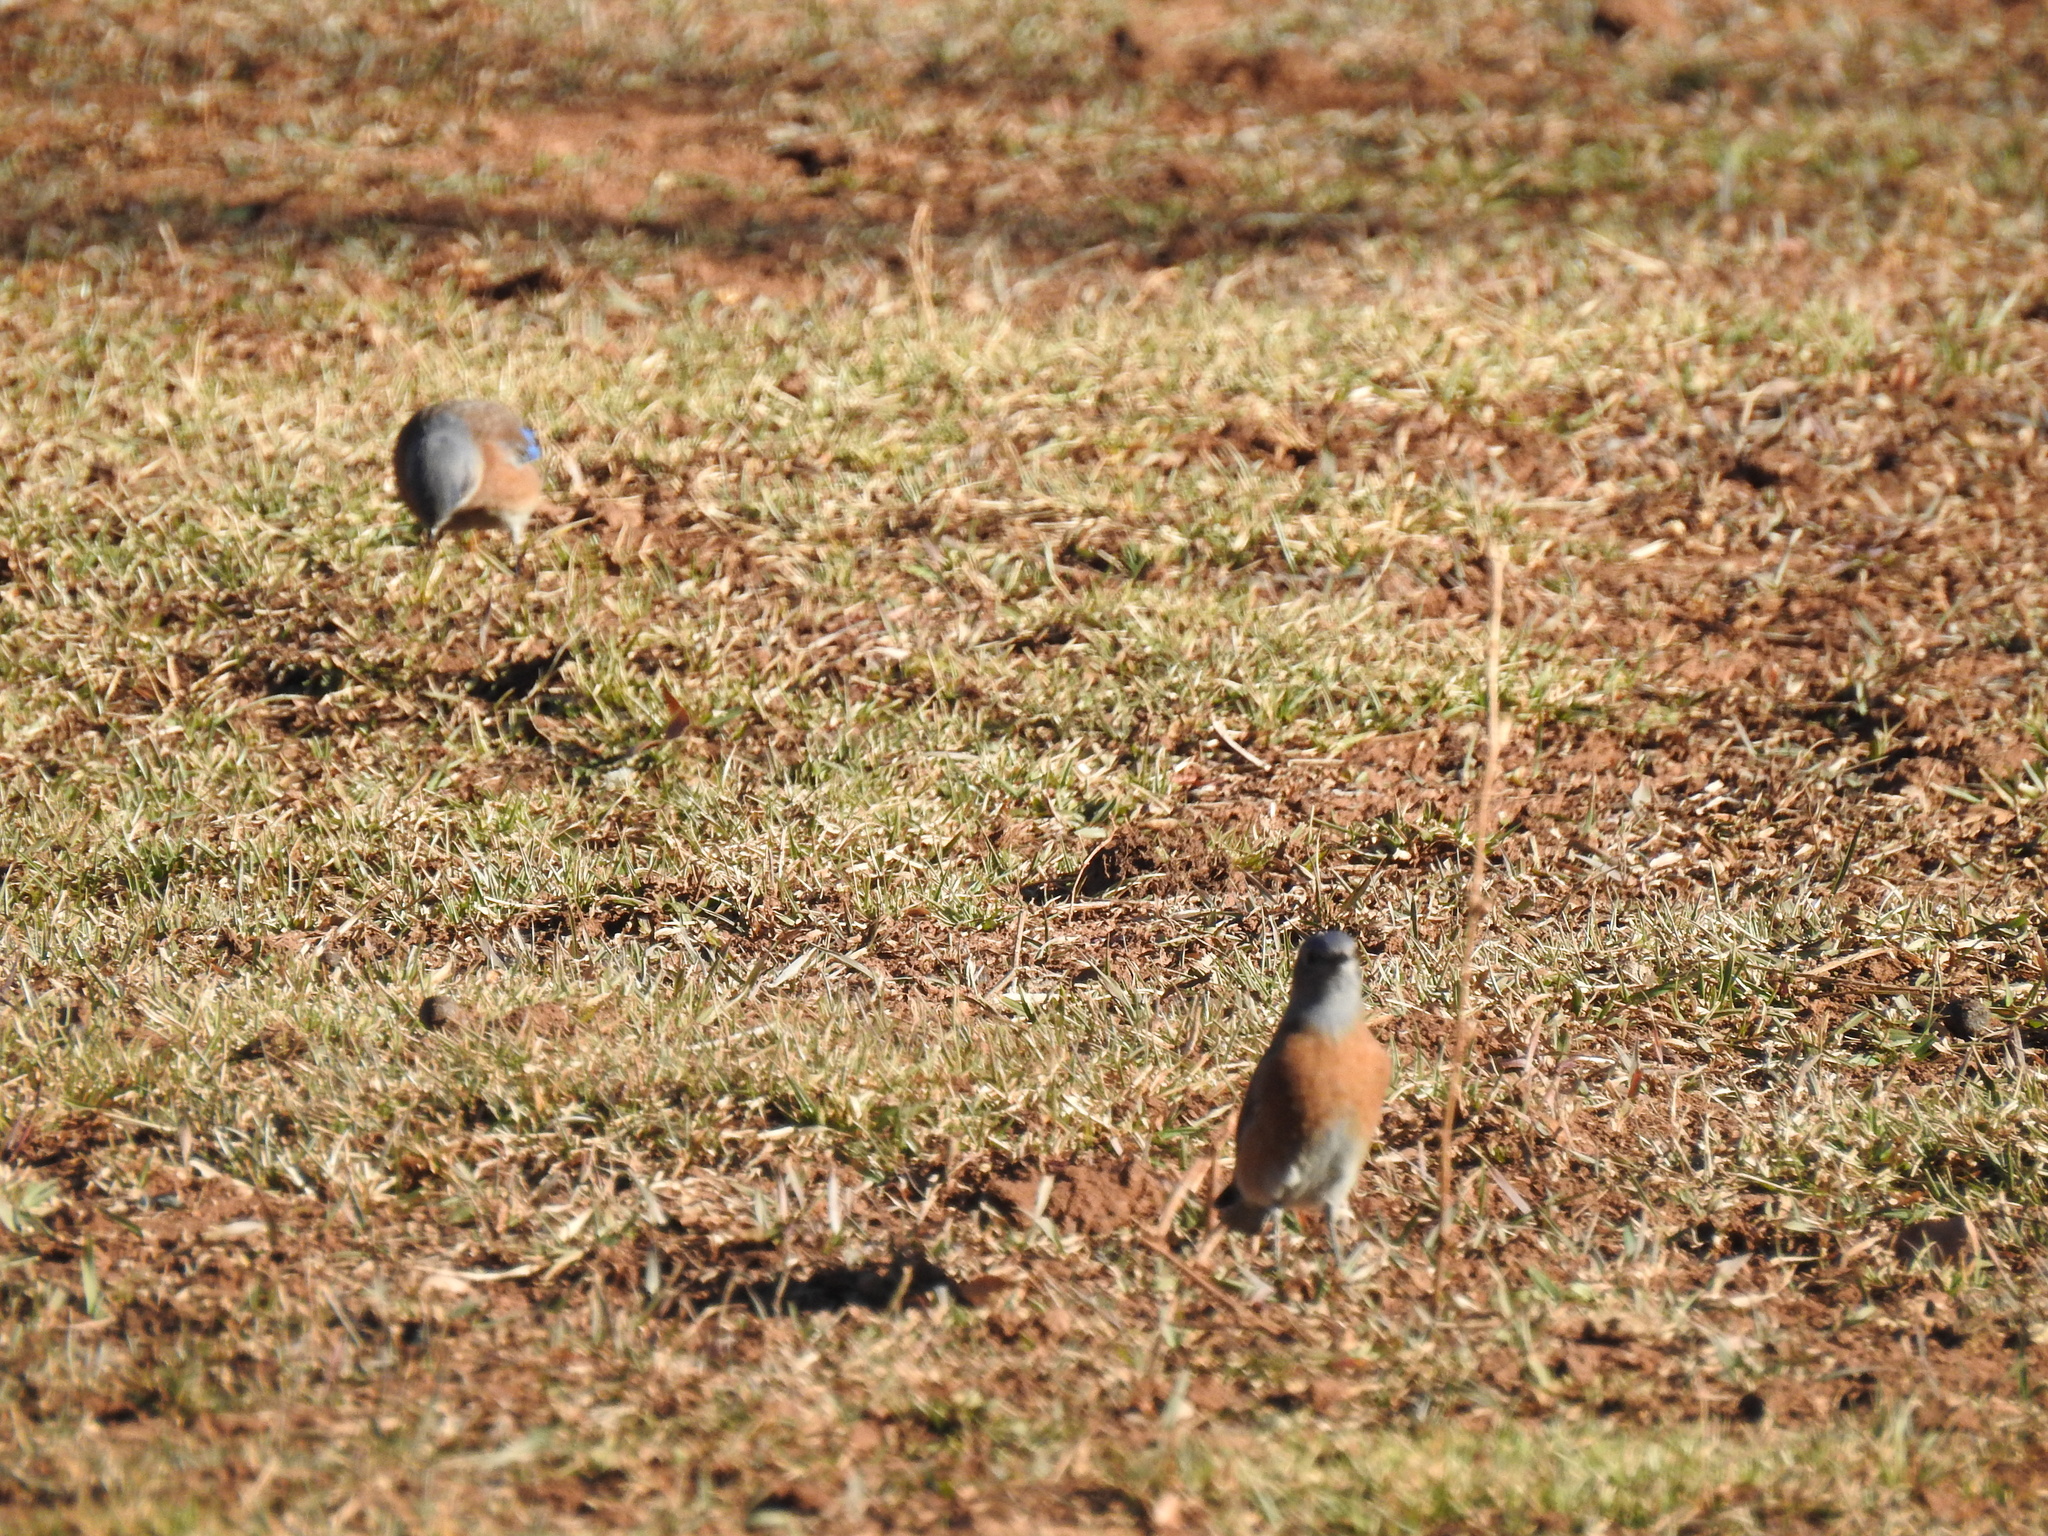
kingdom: Animalia
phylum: Chordata
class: Aves
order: Passeriformes
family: Turdidae
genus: Sialia
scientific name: Sialia mexicana
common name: Western bluebird
